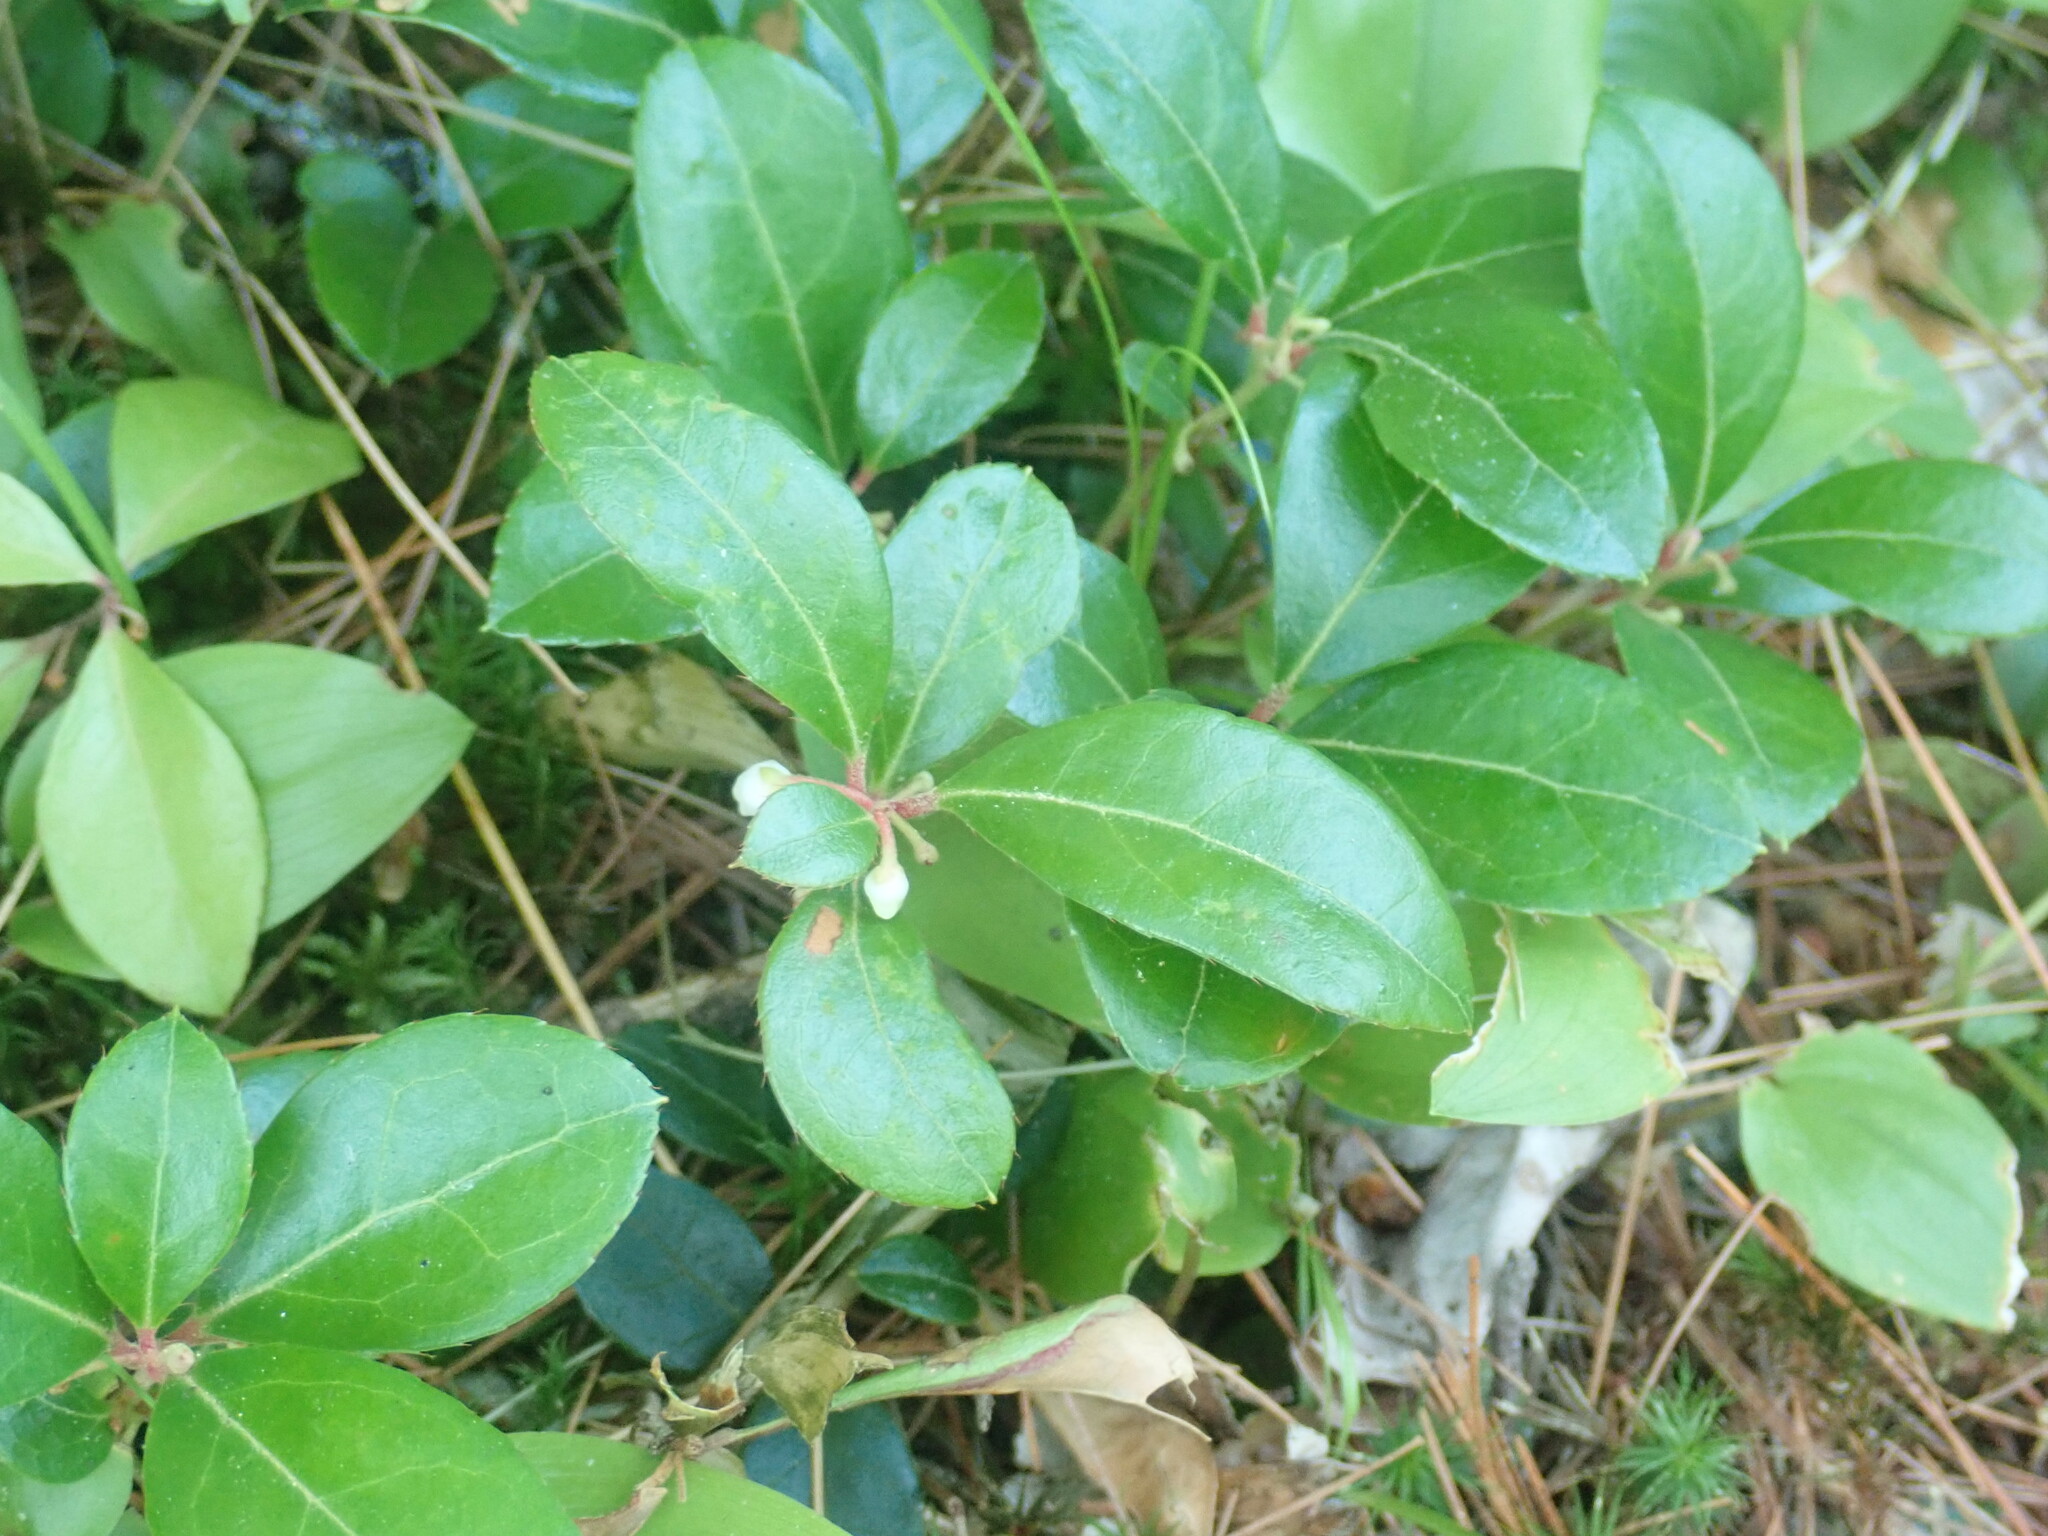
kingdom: Plantae
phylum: Tracheophyta
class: Magnoliopsida
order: Ericales
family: Ericaceae
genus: Gaultheria
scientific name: Gaultheria procumbens
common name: Checkerberry
